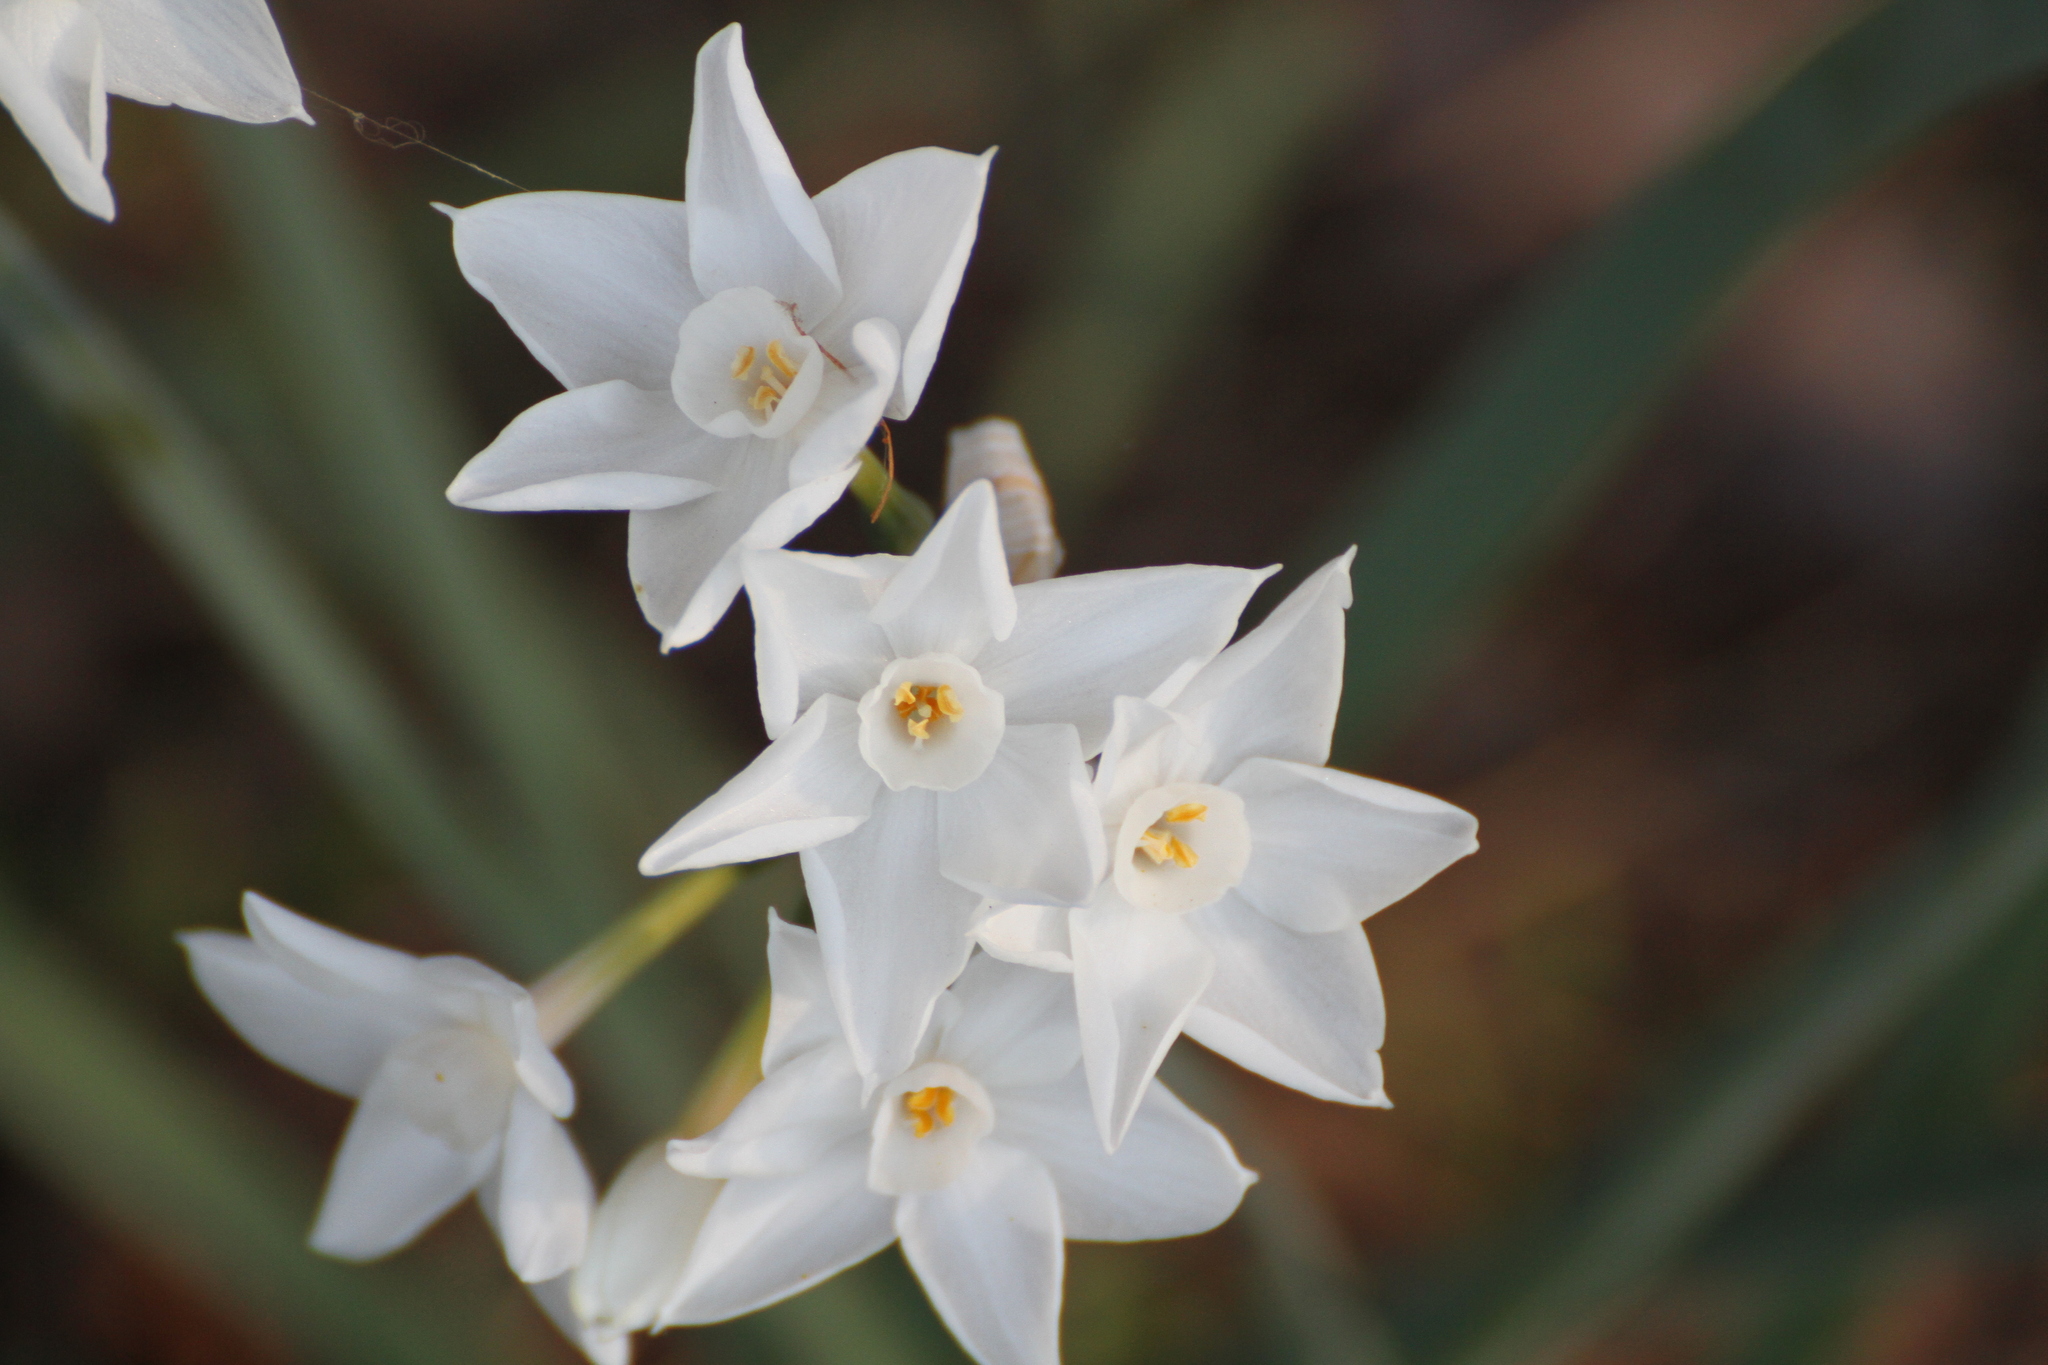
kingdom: Plantae
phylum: Tracheophyta
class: Liliopsida
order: Asparagales
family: Amaryllidaceae
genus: Narcissus
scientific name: Narcissus papyraceus
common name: Paper-white daffodil
